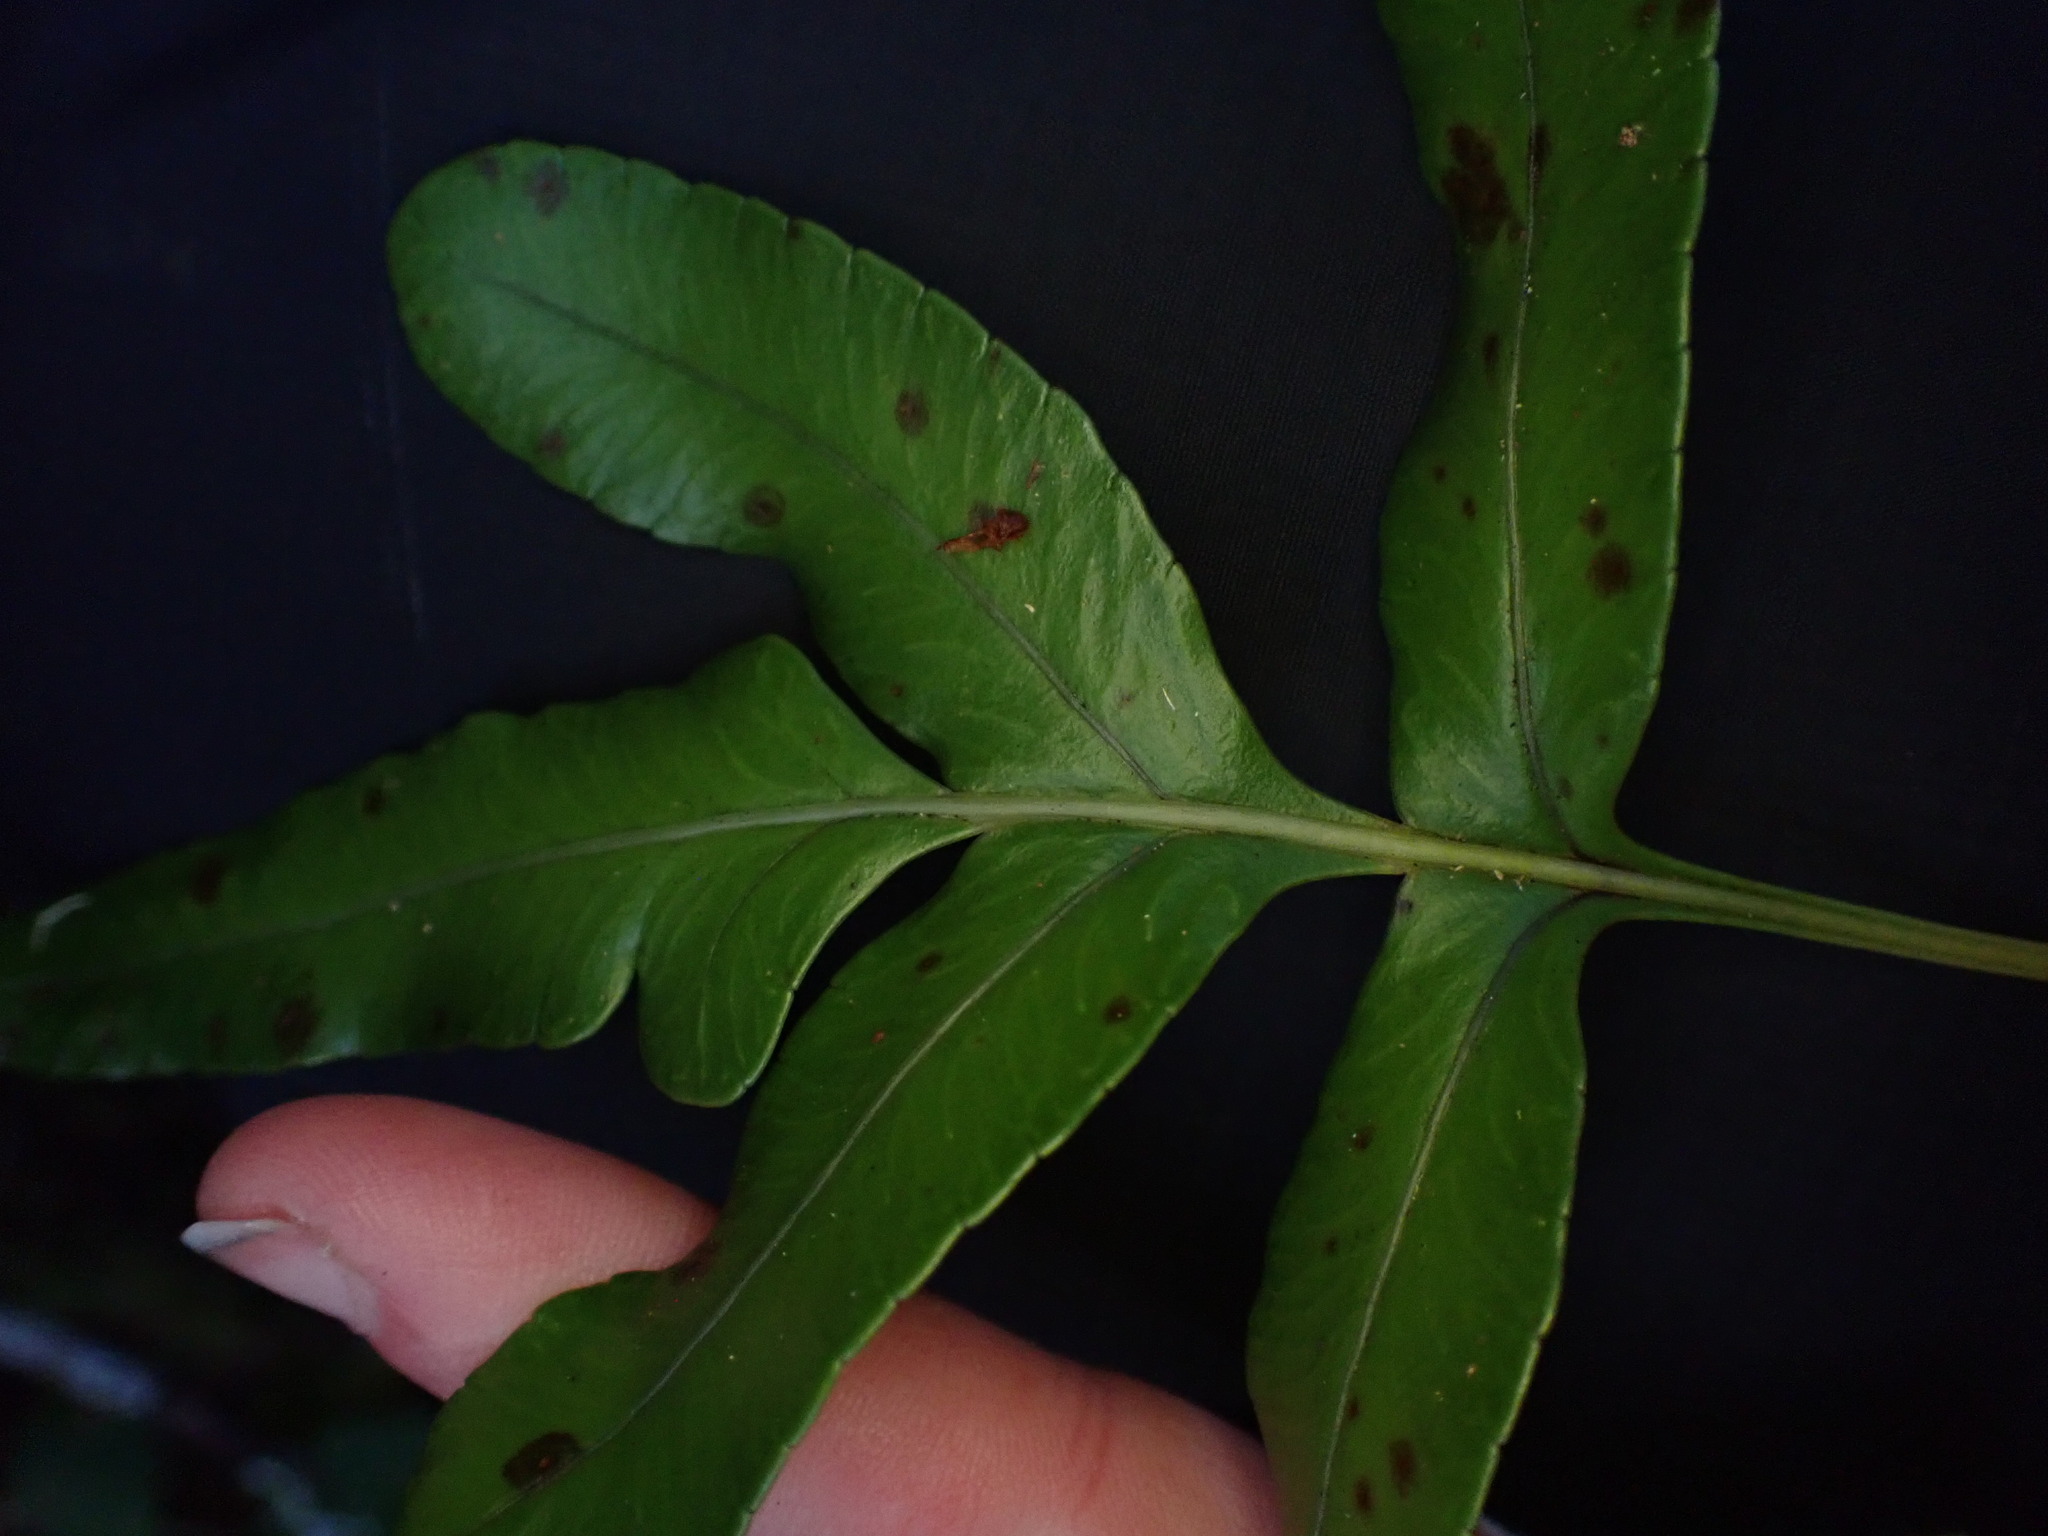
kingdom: Plantae
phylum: Tracheophyta
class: Polypodiopsida
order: Polypodiales
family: Polypodiaceae
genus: Polypodium
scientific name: Polypodium scouleri
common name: Scouler's polypody
